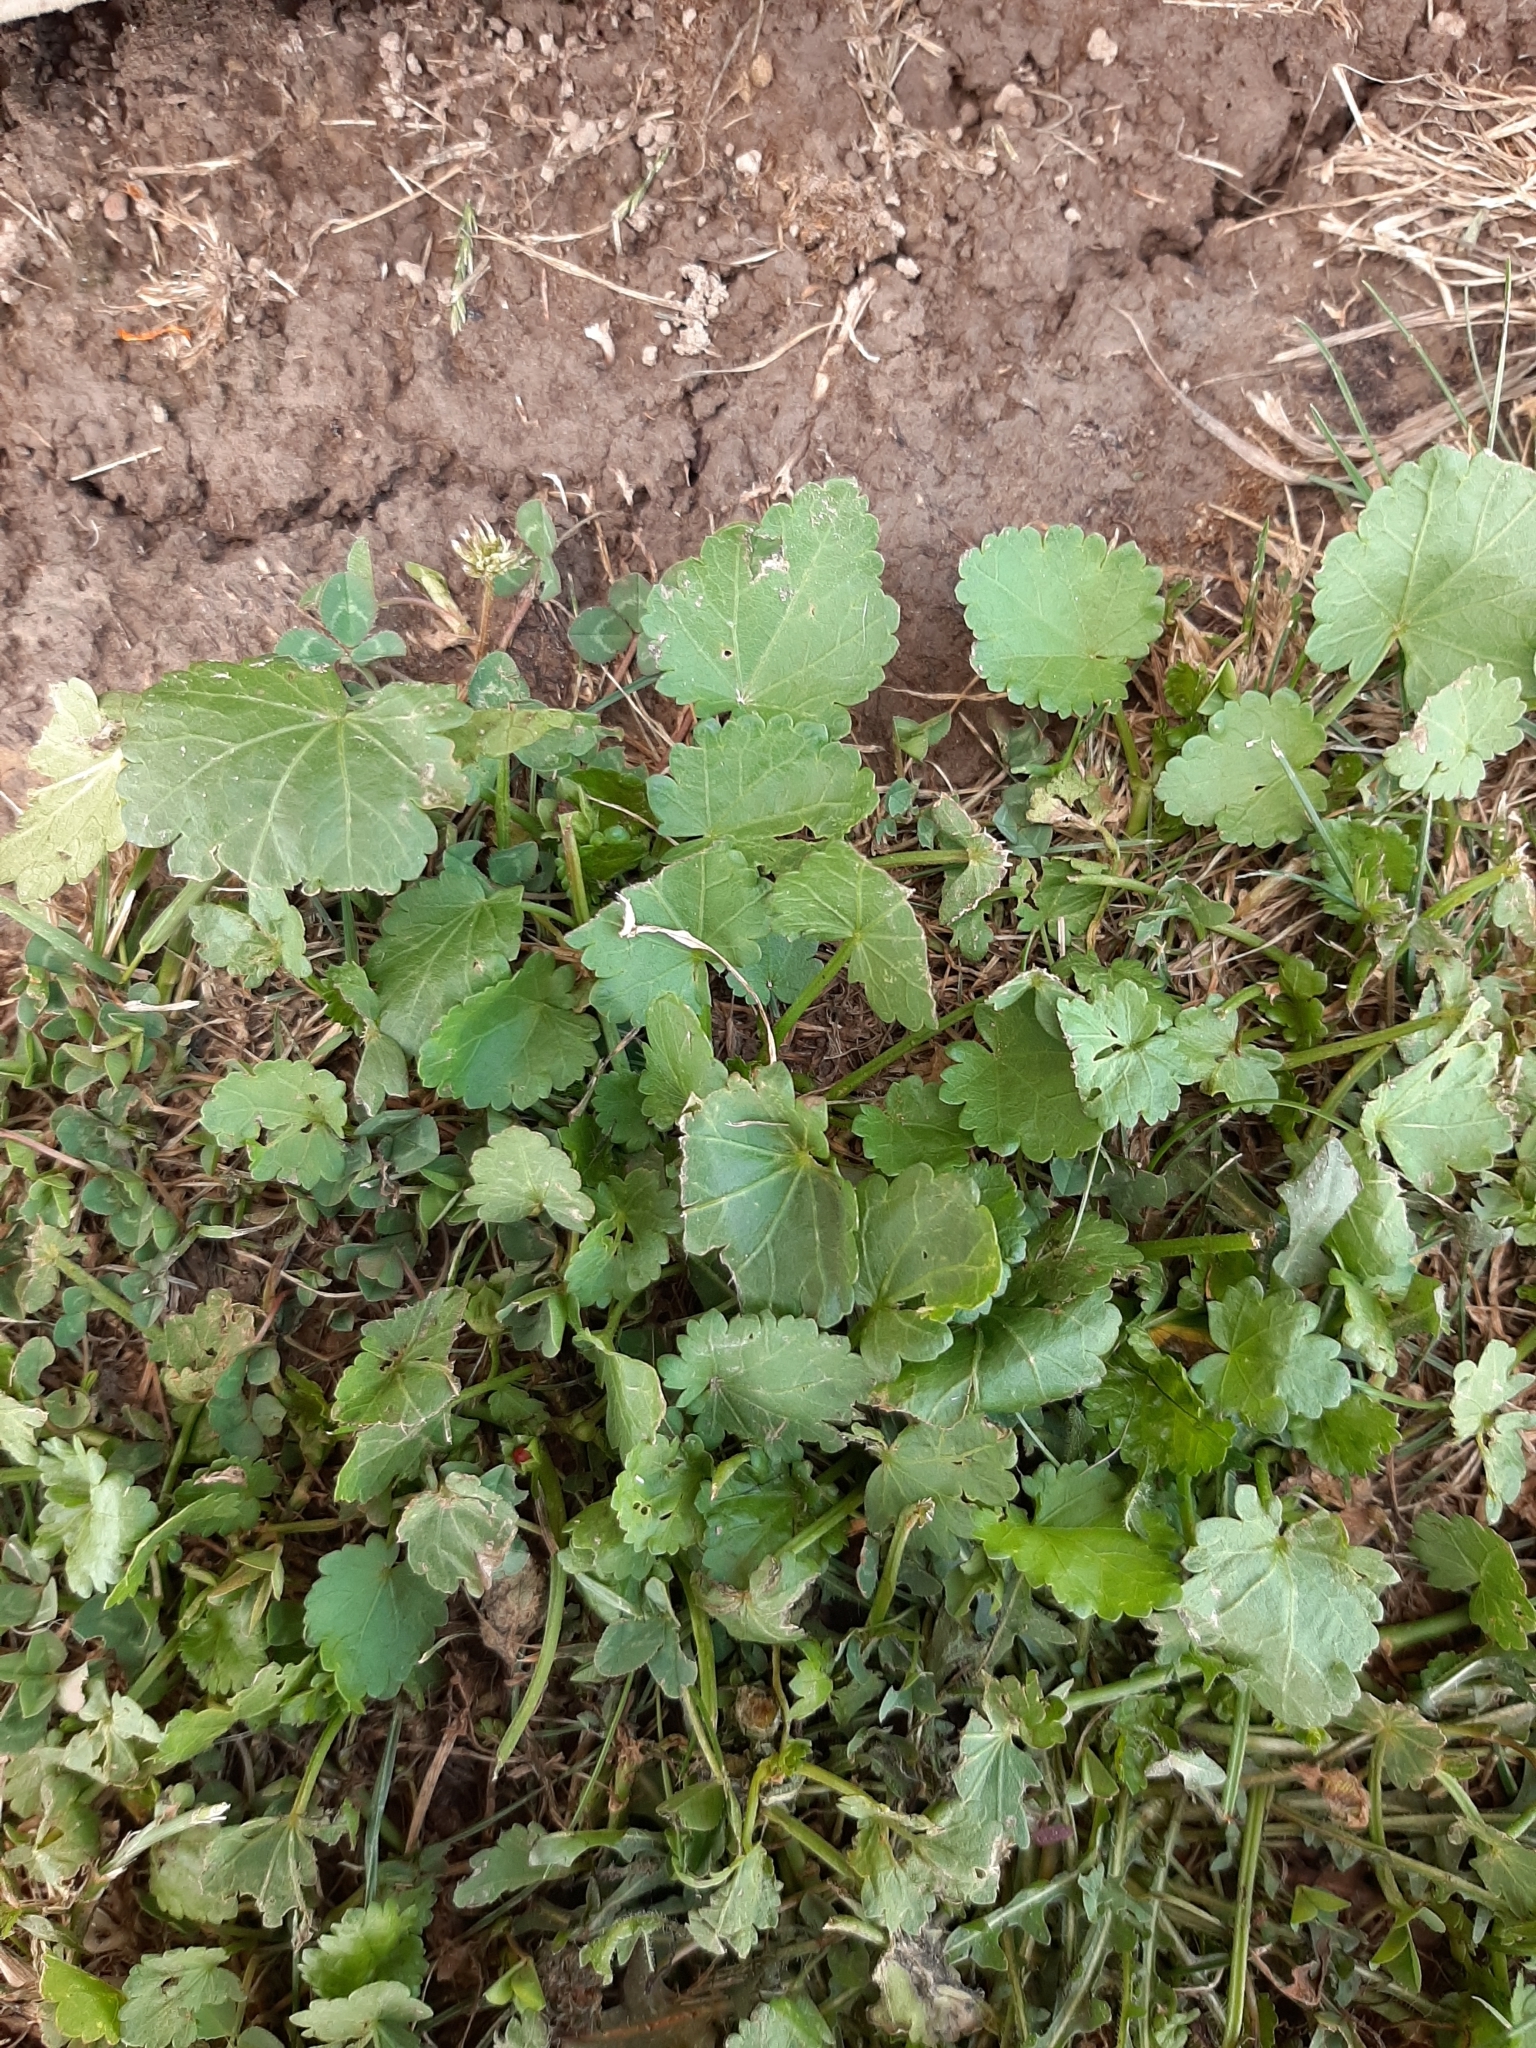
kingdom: Plantae
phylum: Tracheophyta
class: Magnoliopsida
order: Malvales
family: Malvaceae
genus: Modiola
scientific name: Modiola caroliniana
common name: Carolina bristlemallow
